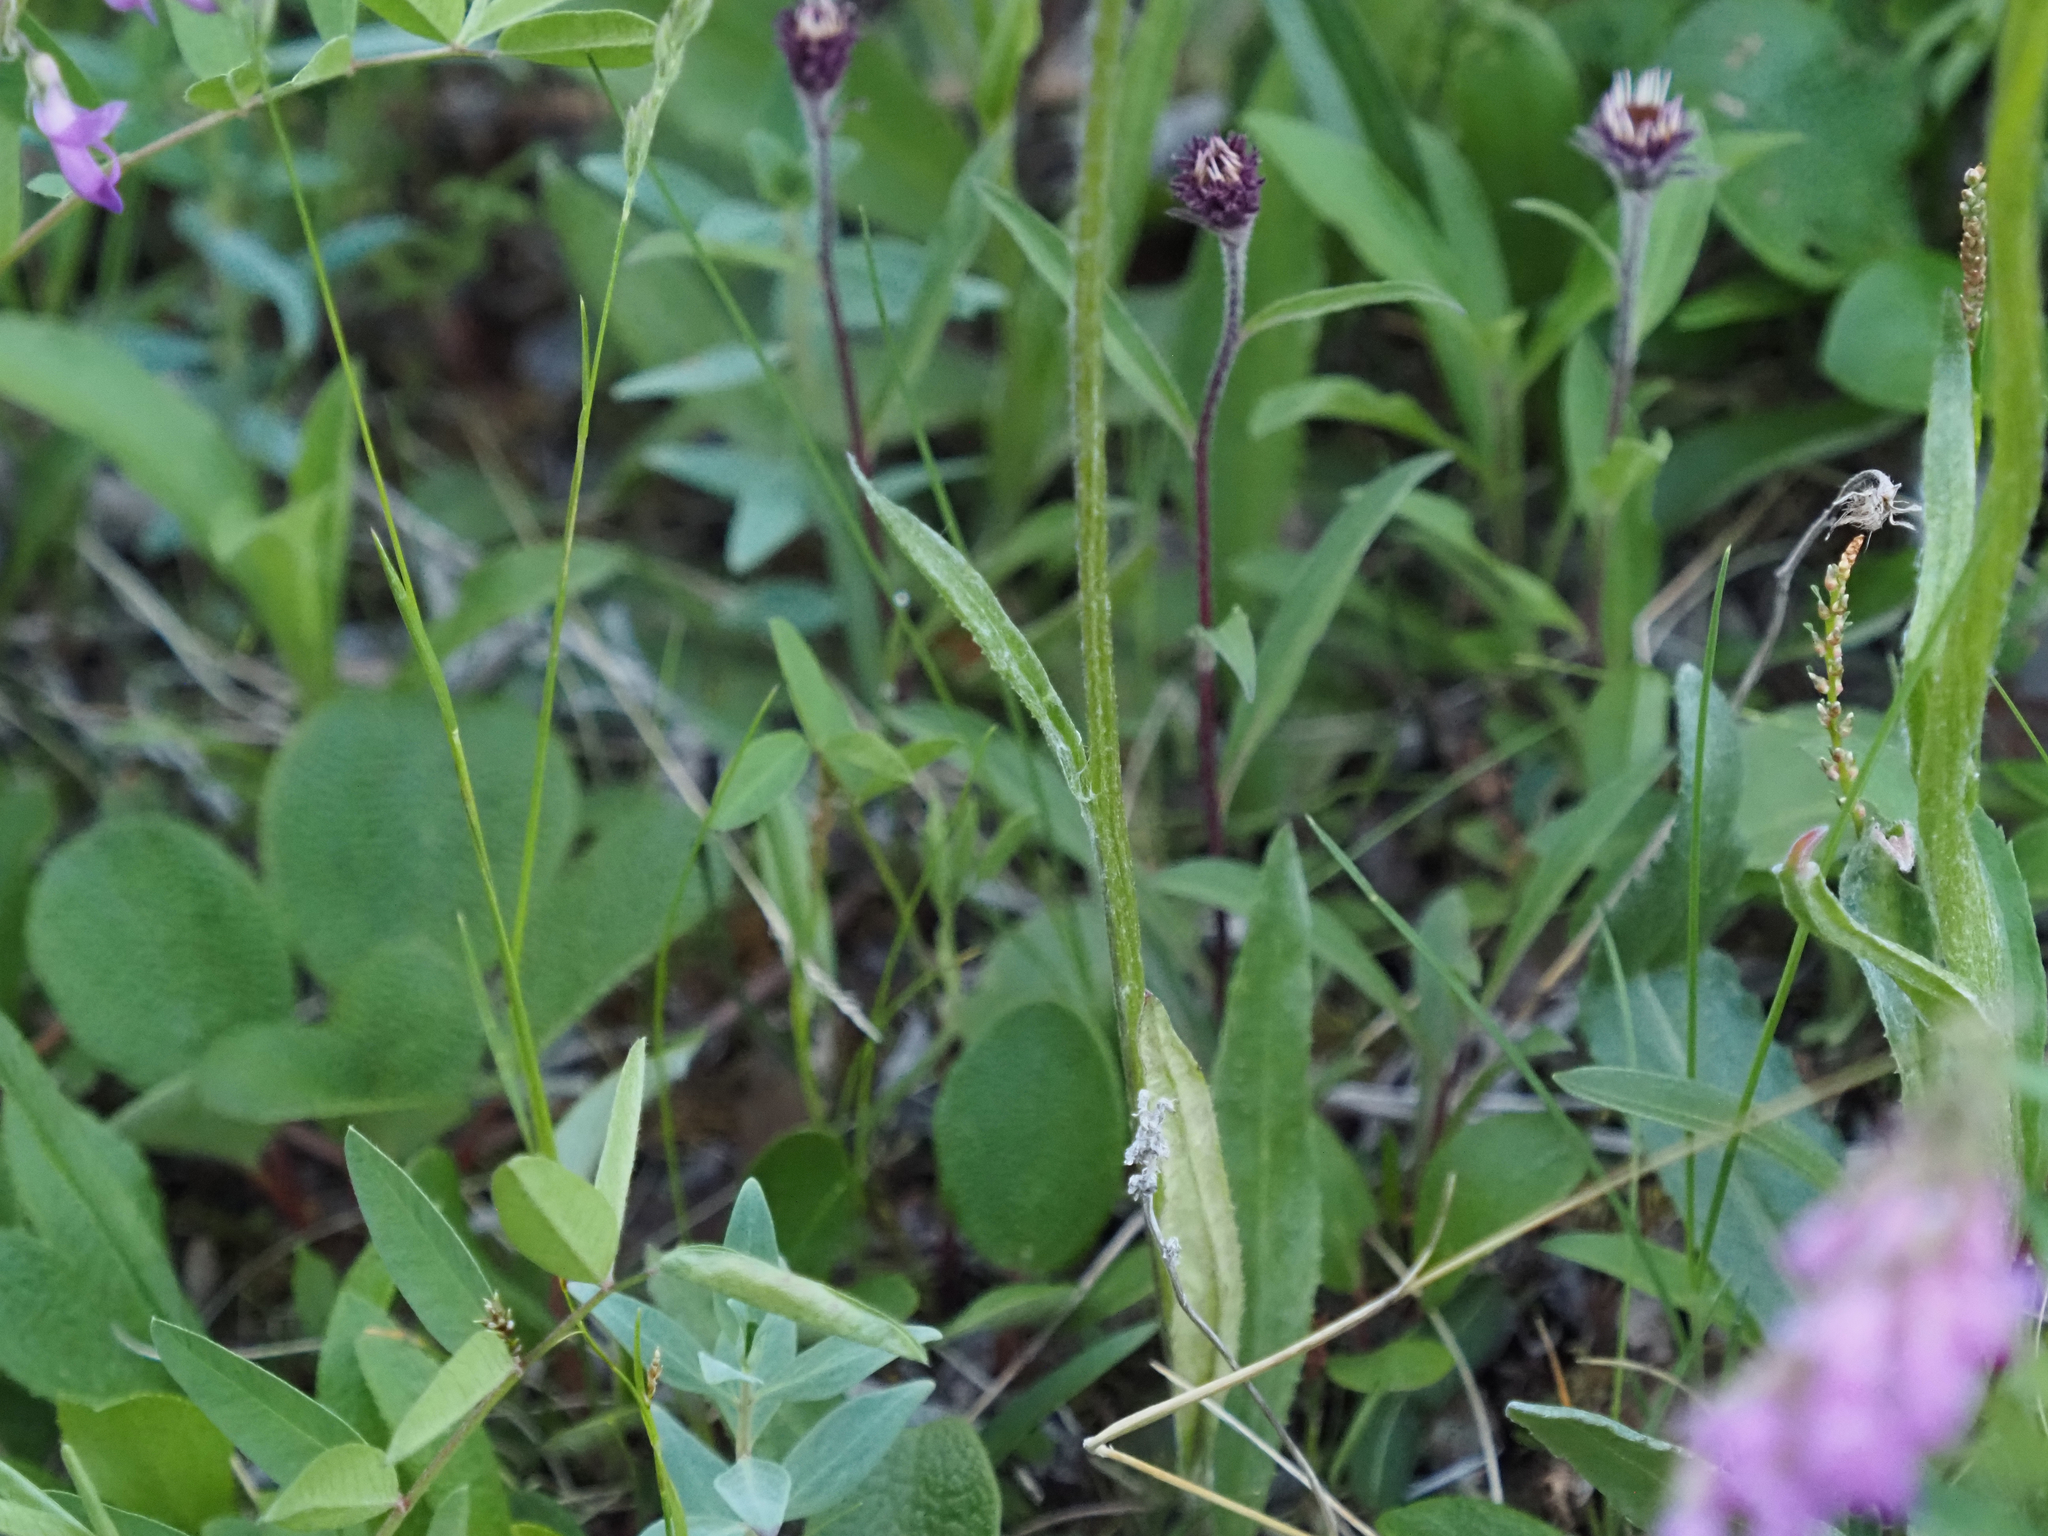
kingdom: Plantae
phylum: Tracheophyta
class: Magnoliopsida
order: Asterales
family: Asteraceae
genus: Senecio
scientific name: Senecio lugens
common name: Black-tip groundsel
